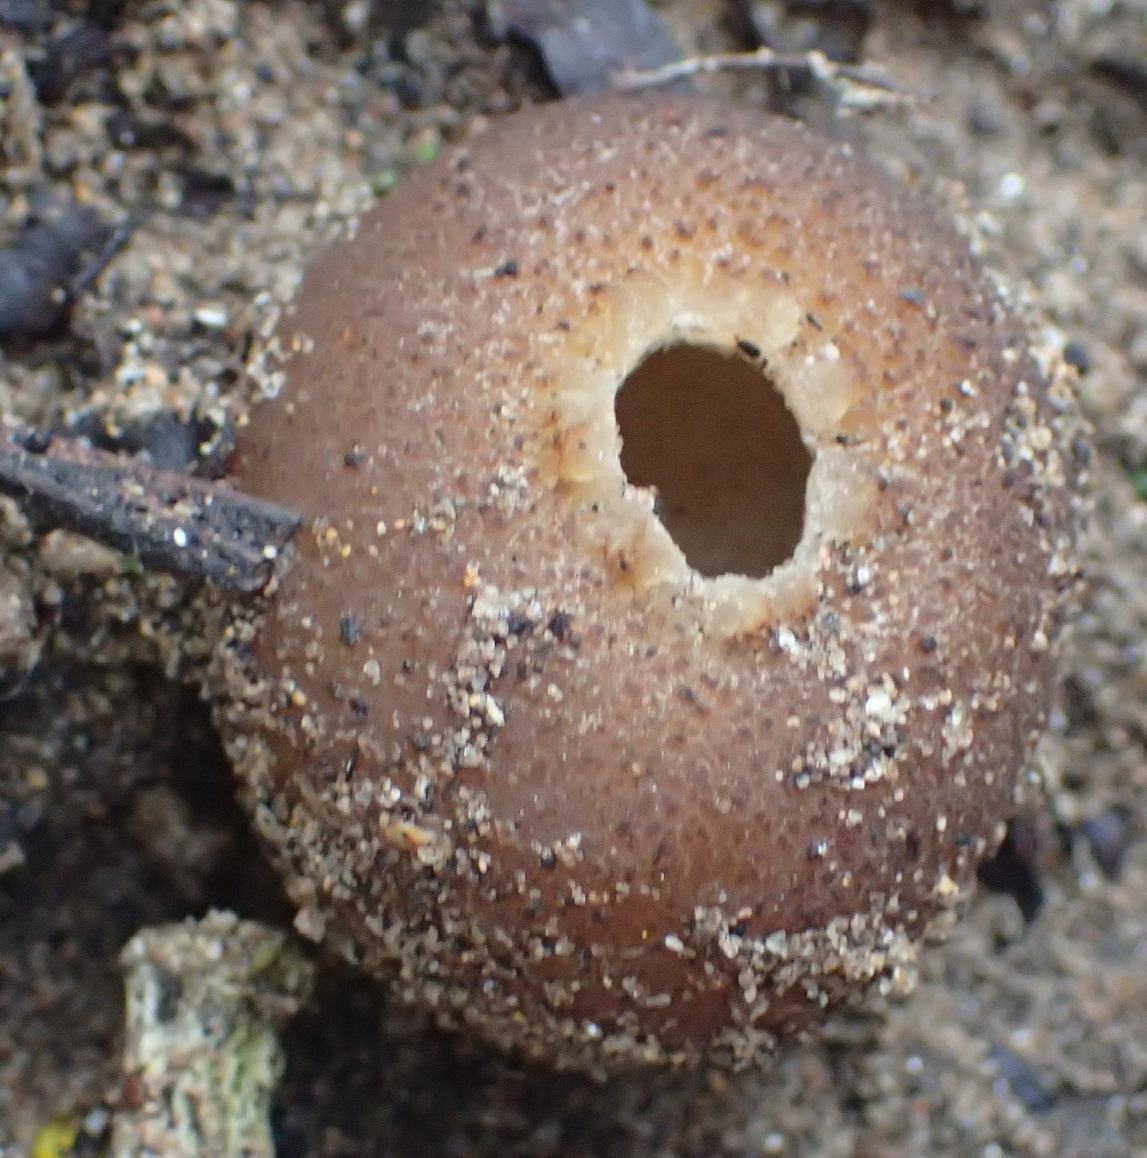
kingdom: Fungi
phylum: Ascomycota
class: Pezizomycetes
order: Pezizales
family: Pezizaceae
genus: Peziza
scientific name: Peziza ammophila
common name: Dune cup
